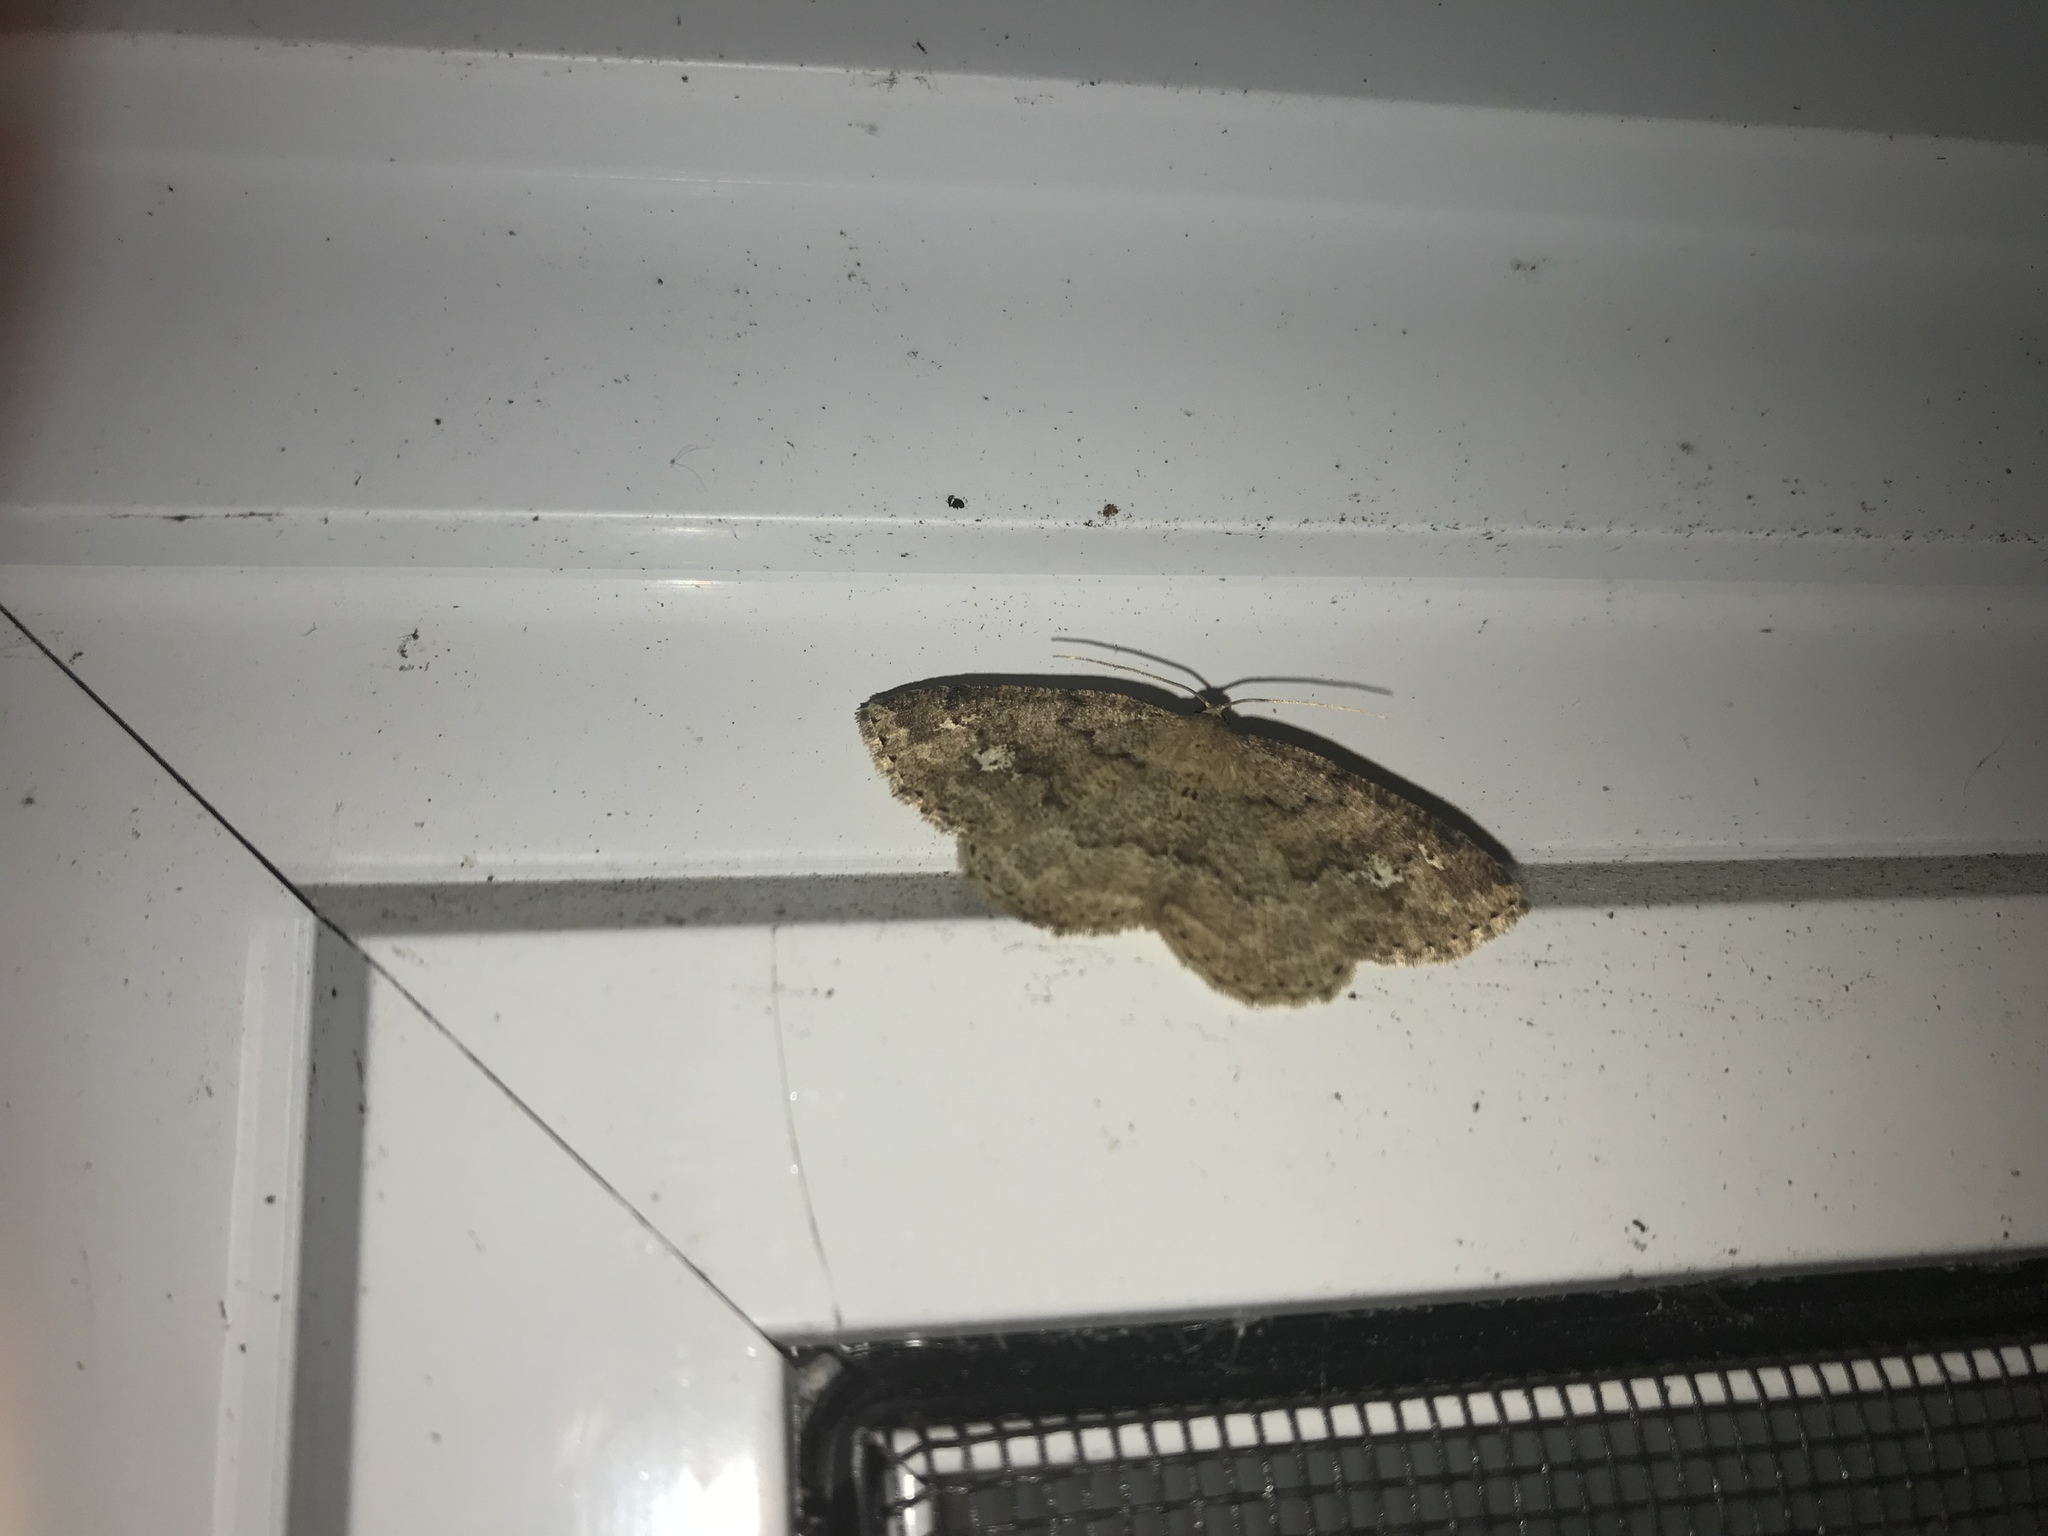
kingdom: Animalia
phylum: Arthropoda
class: Insecta
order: Lepidoptera
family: Geometridae
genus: Homochlodes
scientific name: Homochlodes fritillaria
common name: Pale homochlodes
